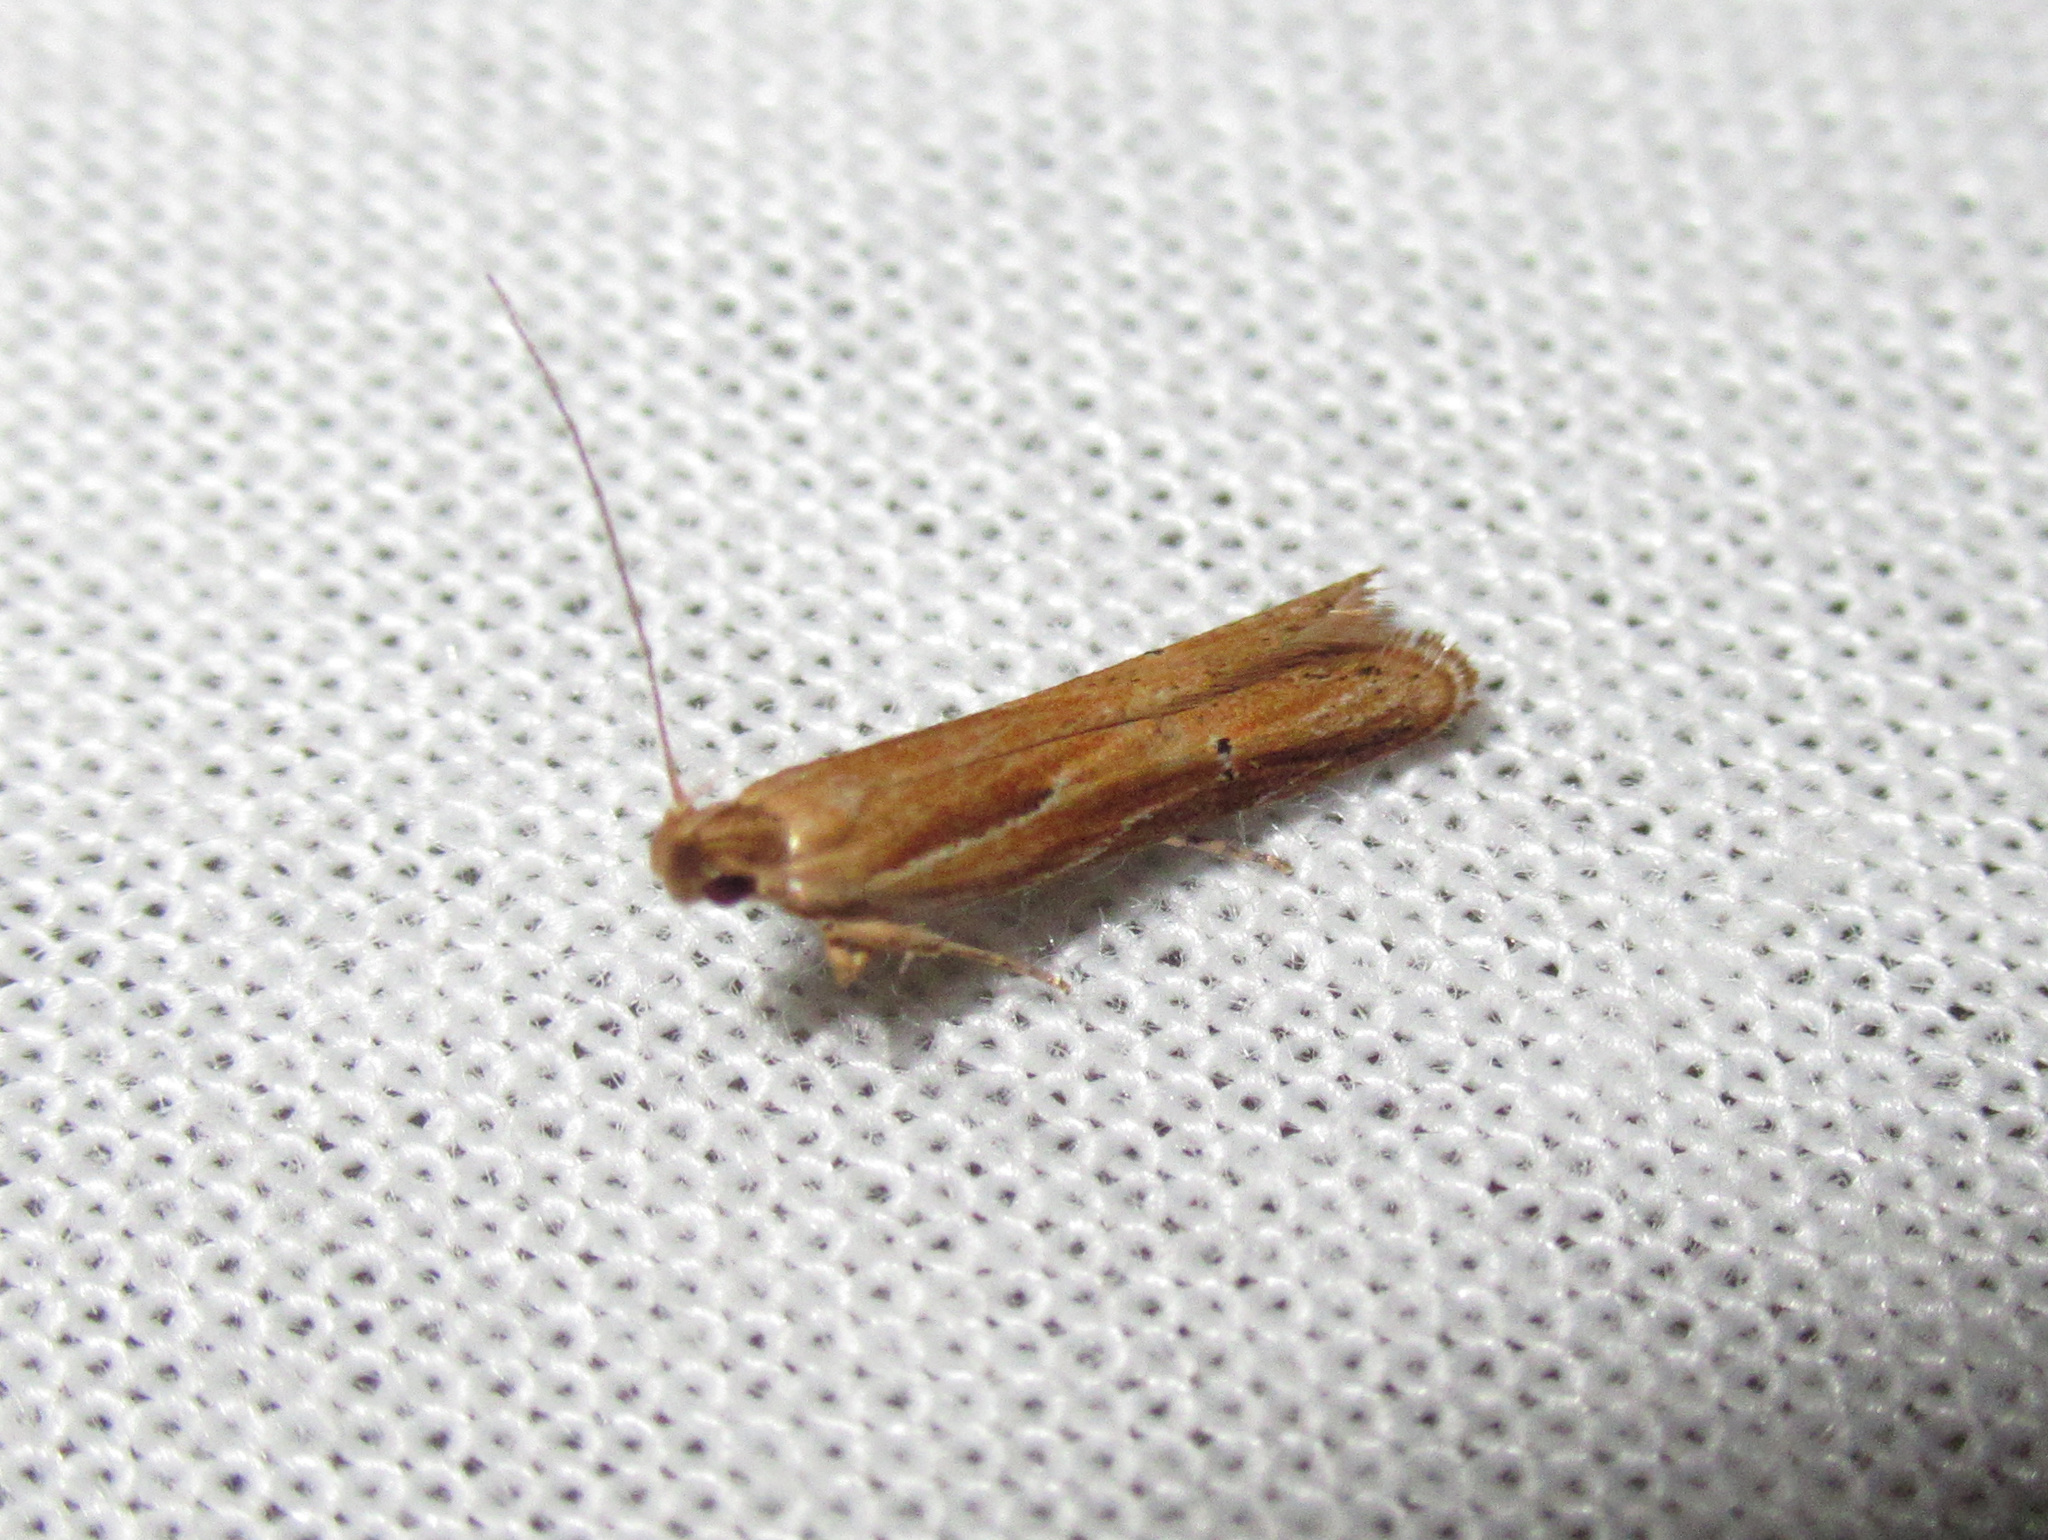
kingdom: Animalia
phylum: Arthropoda
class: Insecta
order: Lepidoptera
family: Depressariidae
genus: Eutorna
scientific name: Eutorna symmorpha
